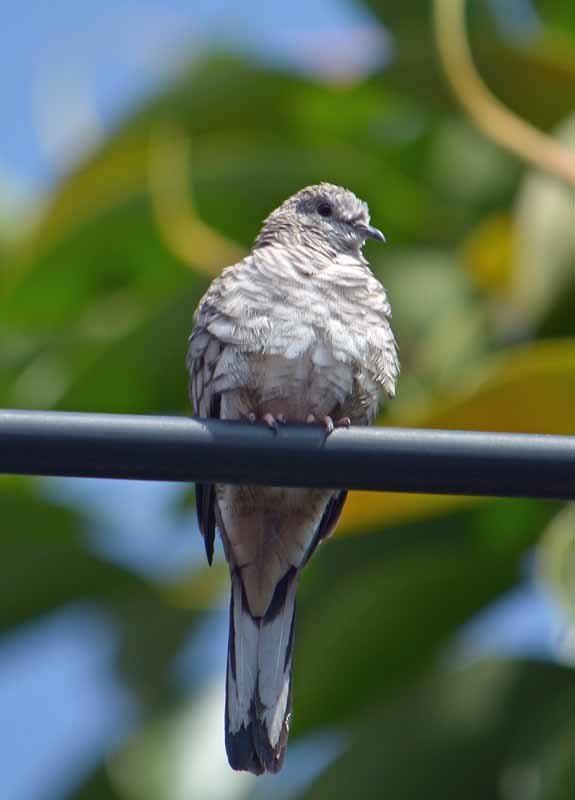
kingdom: Animalia
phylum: Chordata
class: Aves
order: Columbiformes
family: Columbidae
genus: Columbina
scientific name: Columbina inca
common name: Inca dove
